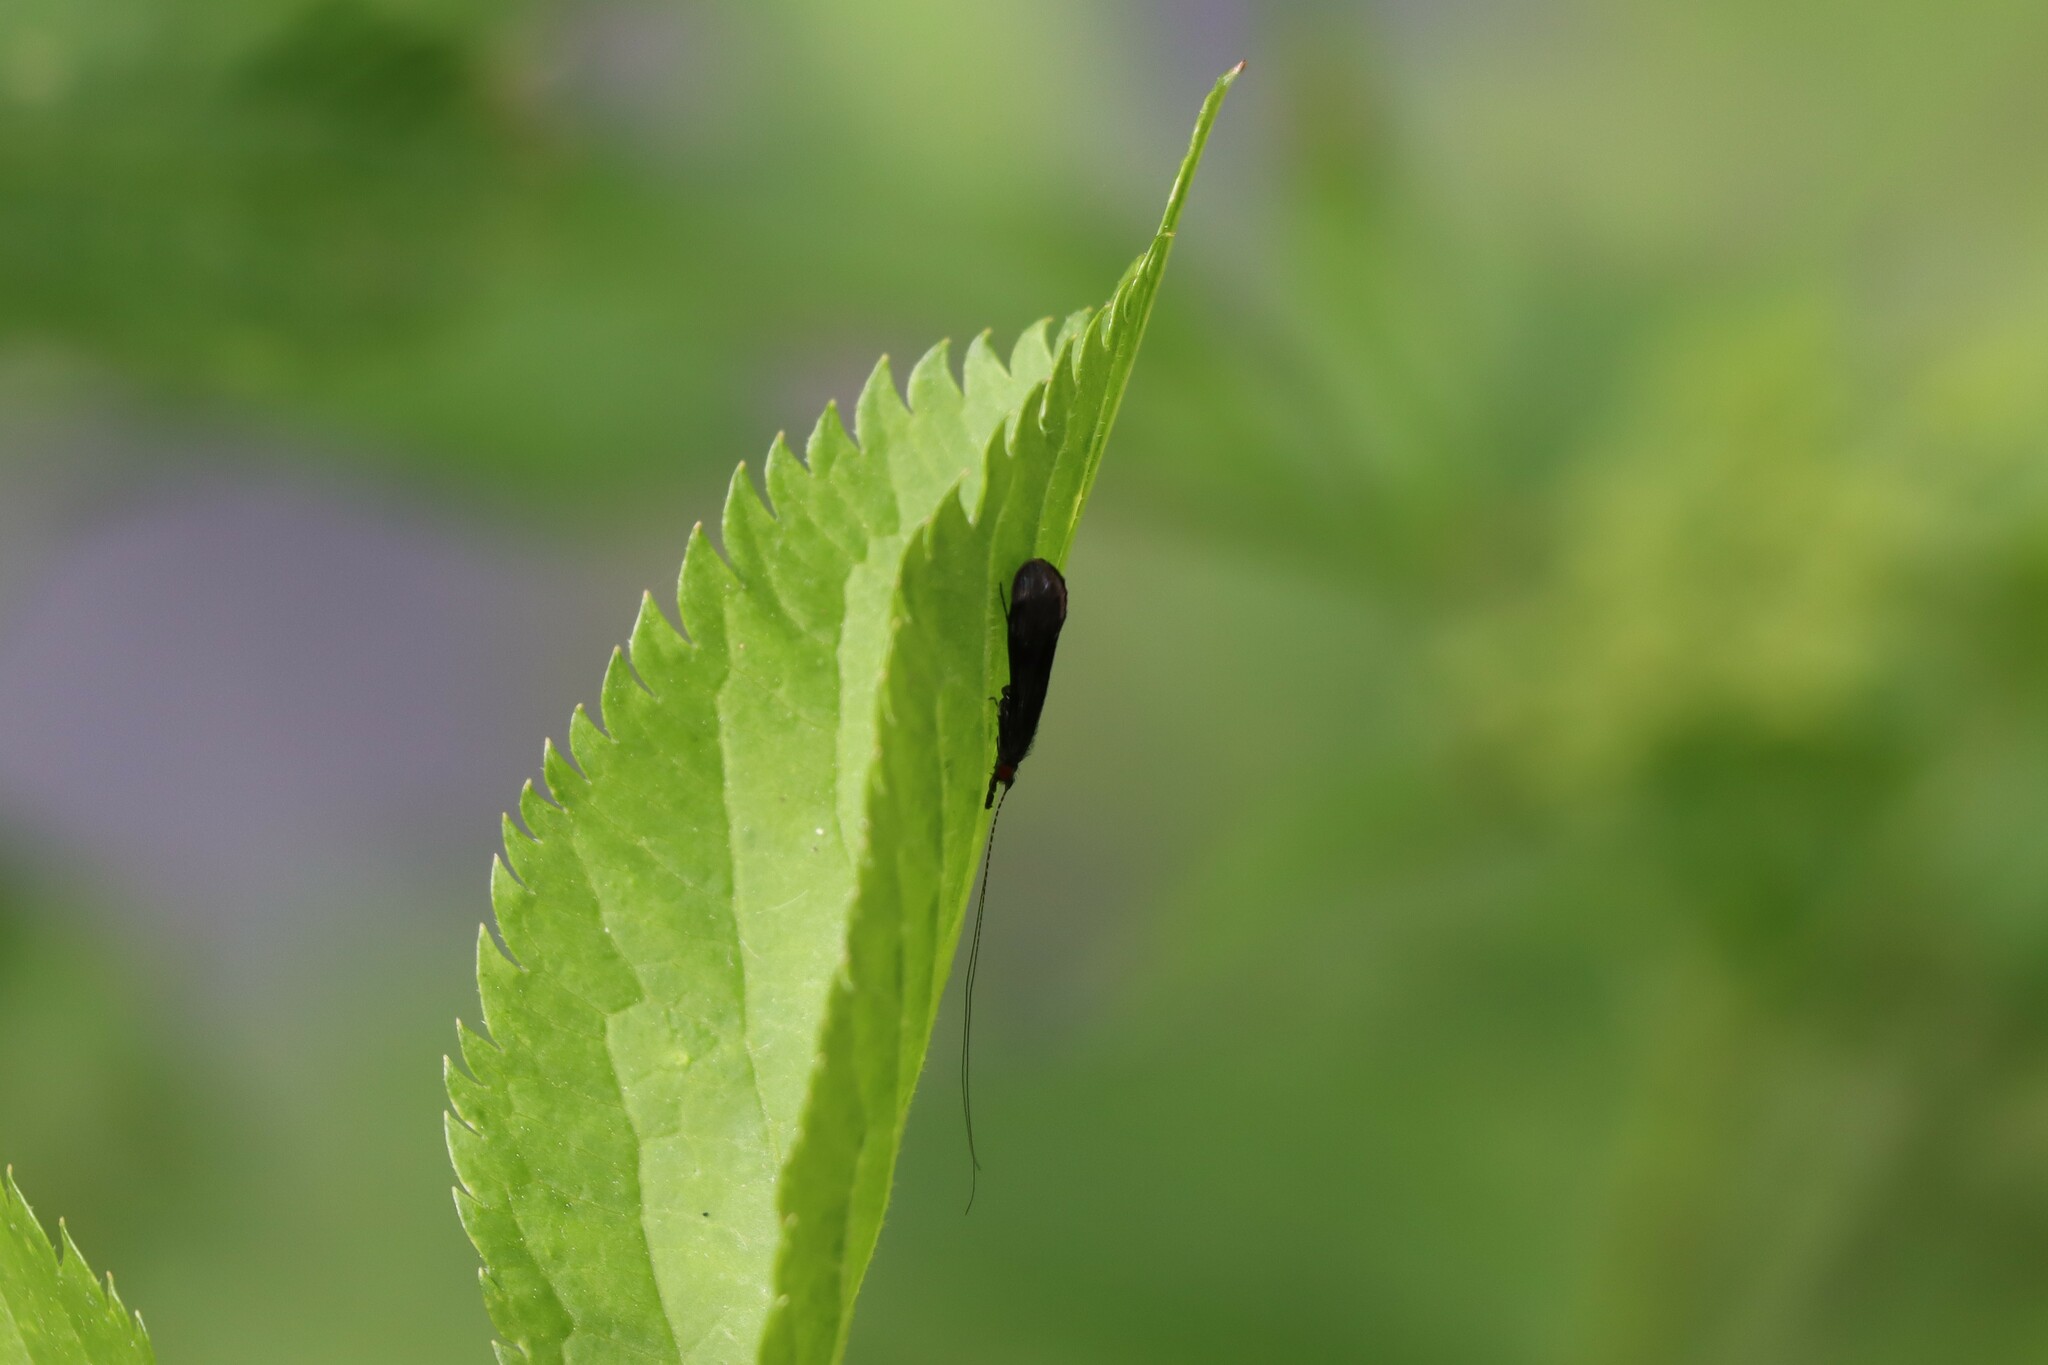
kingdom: Animalia
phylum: Arthropoda
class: Insecta
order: Trichoptera
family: Leptoceridae
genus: Mystacides
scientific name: Mystacides azureus
